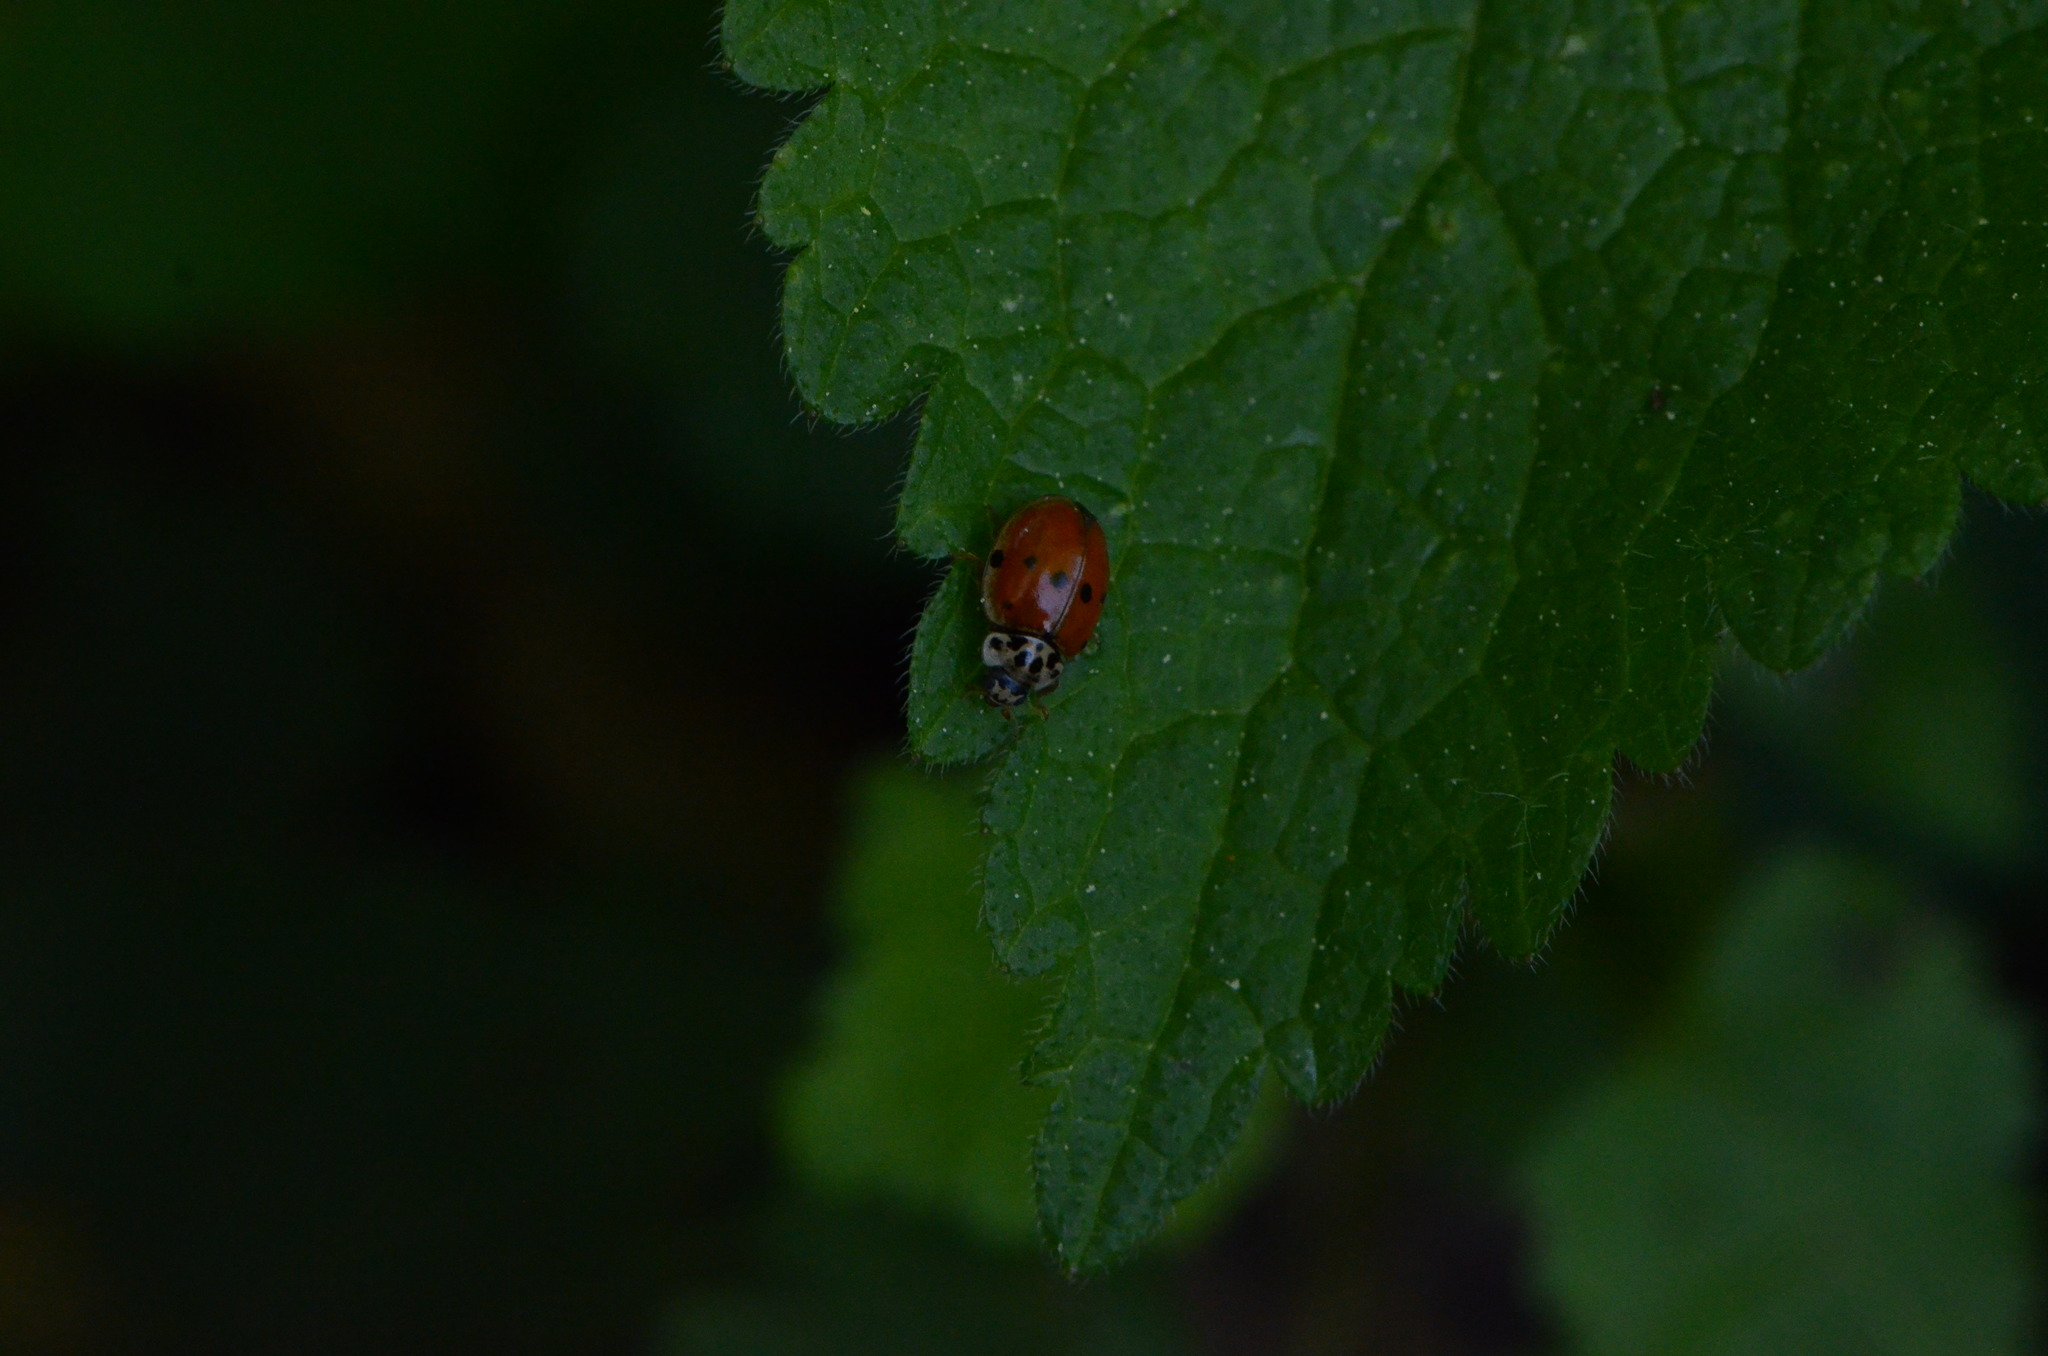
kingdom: Animalia
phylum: Arthropoda
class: Insecta
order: Coleoptera
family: Coccinellidae
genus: Adalia
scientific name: Adalia decempunctata
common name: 10-spot ladybird
